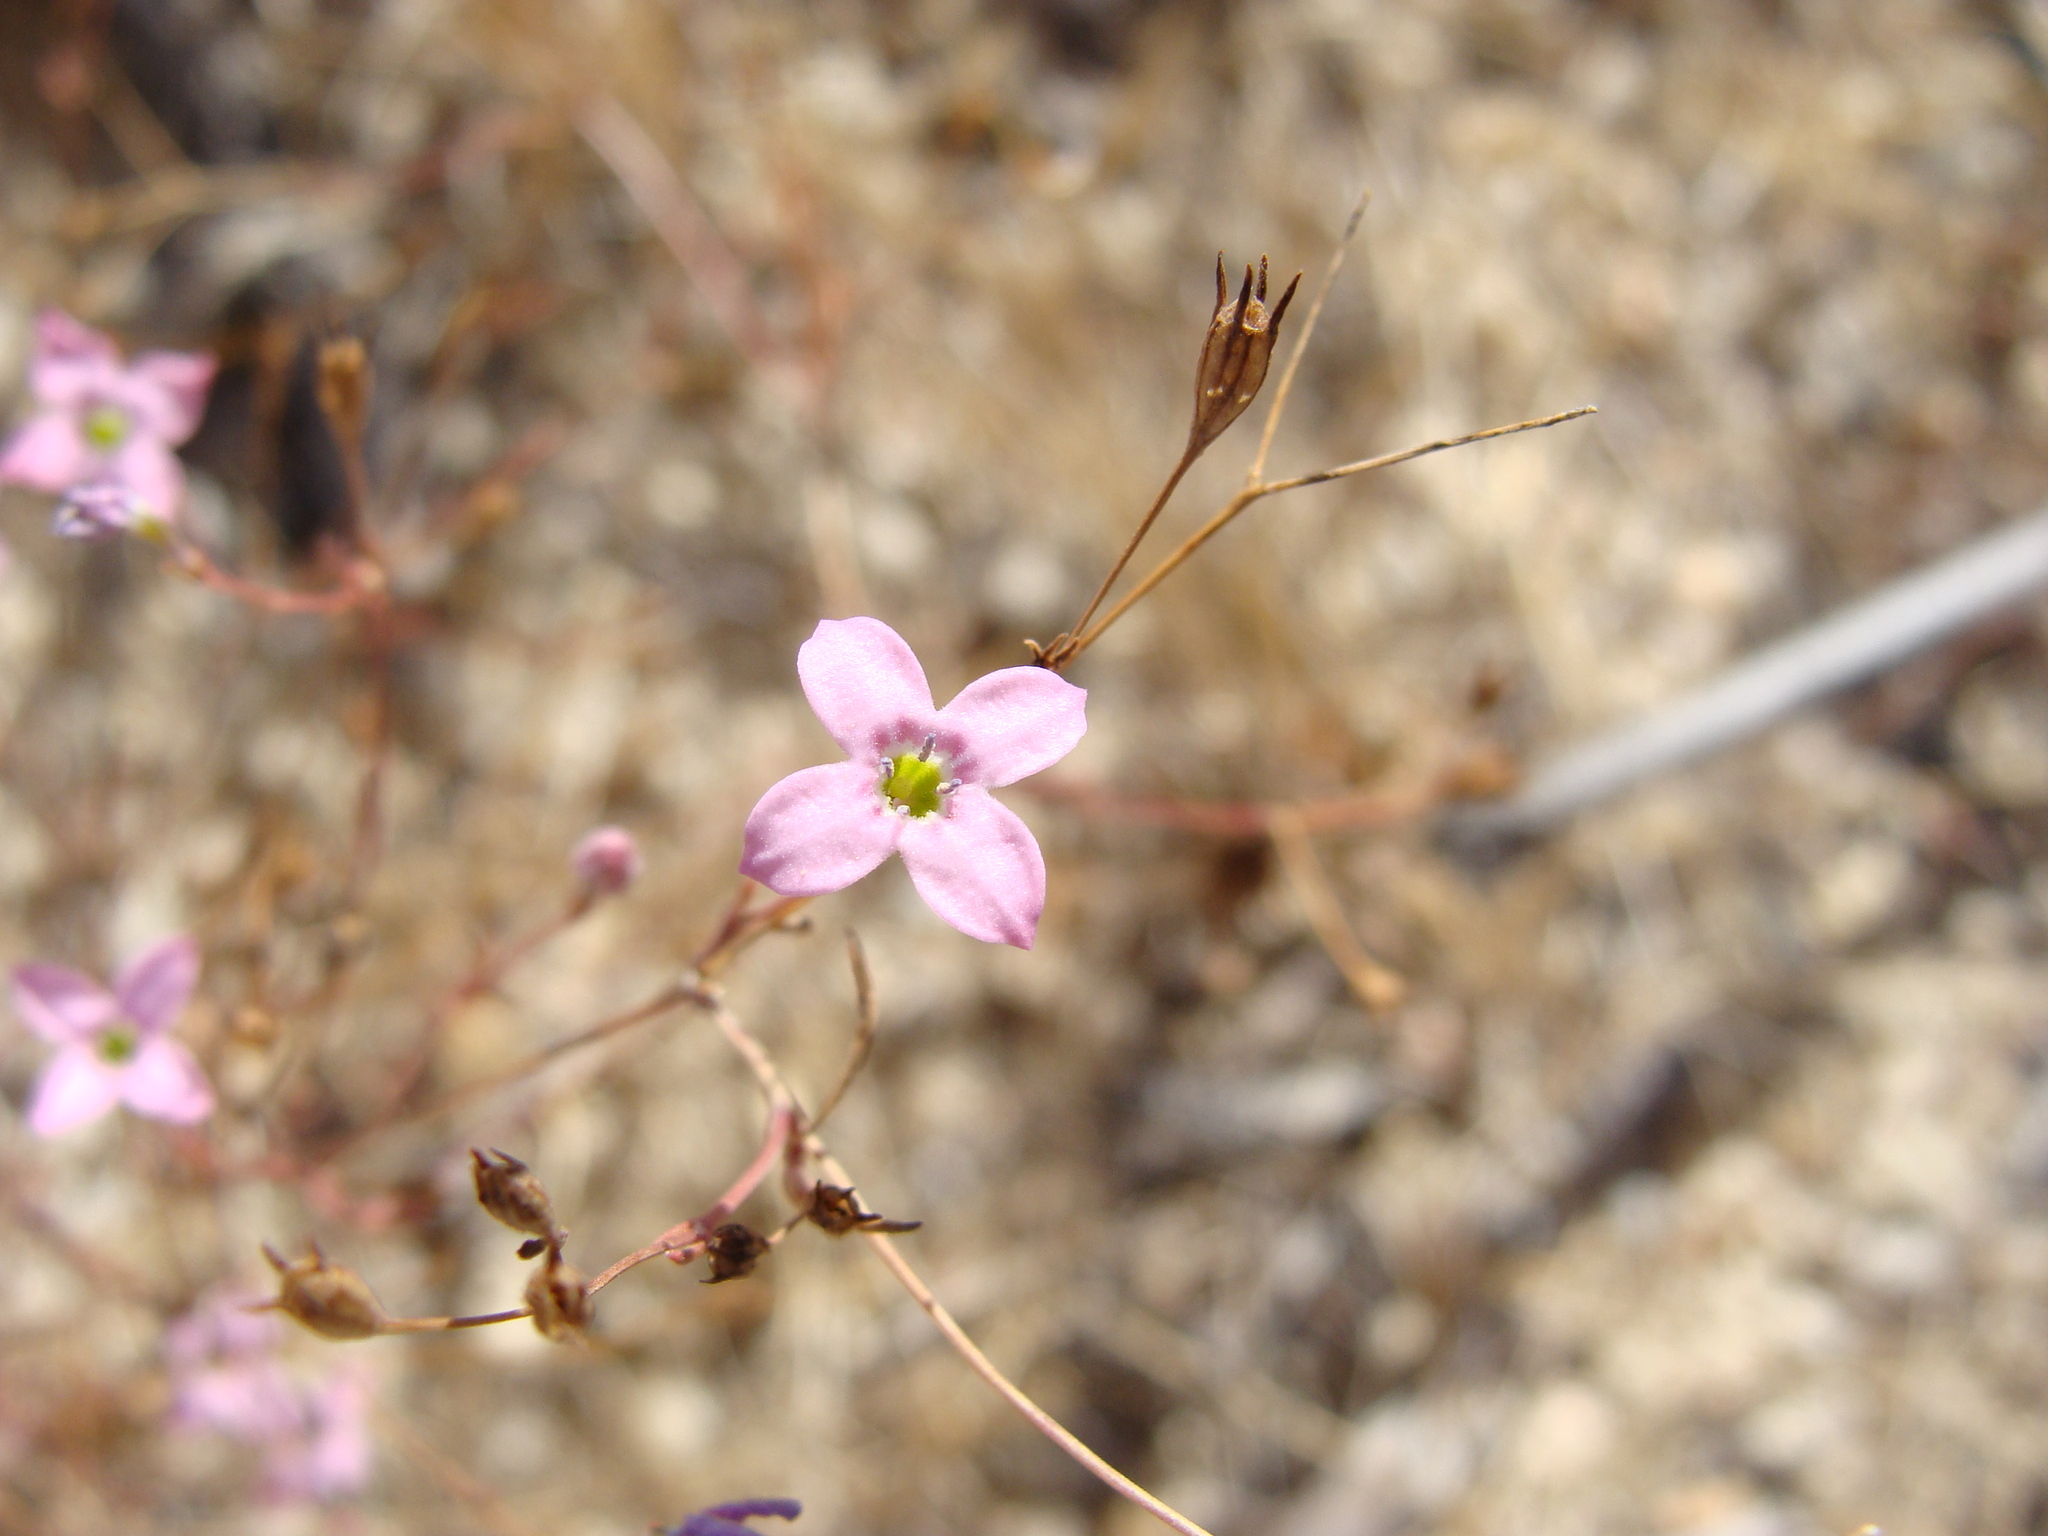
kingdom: Plantae
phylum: Tracheophyta
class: Magnoliopsida
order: Gentianales
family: Rubiaceae
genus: Stenotis
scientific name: Stenotis asperuloides
